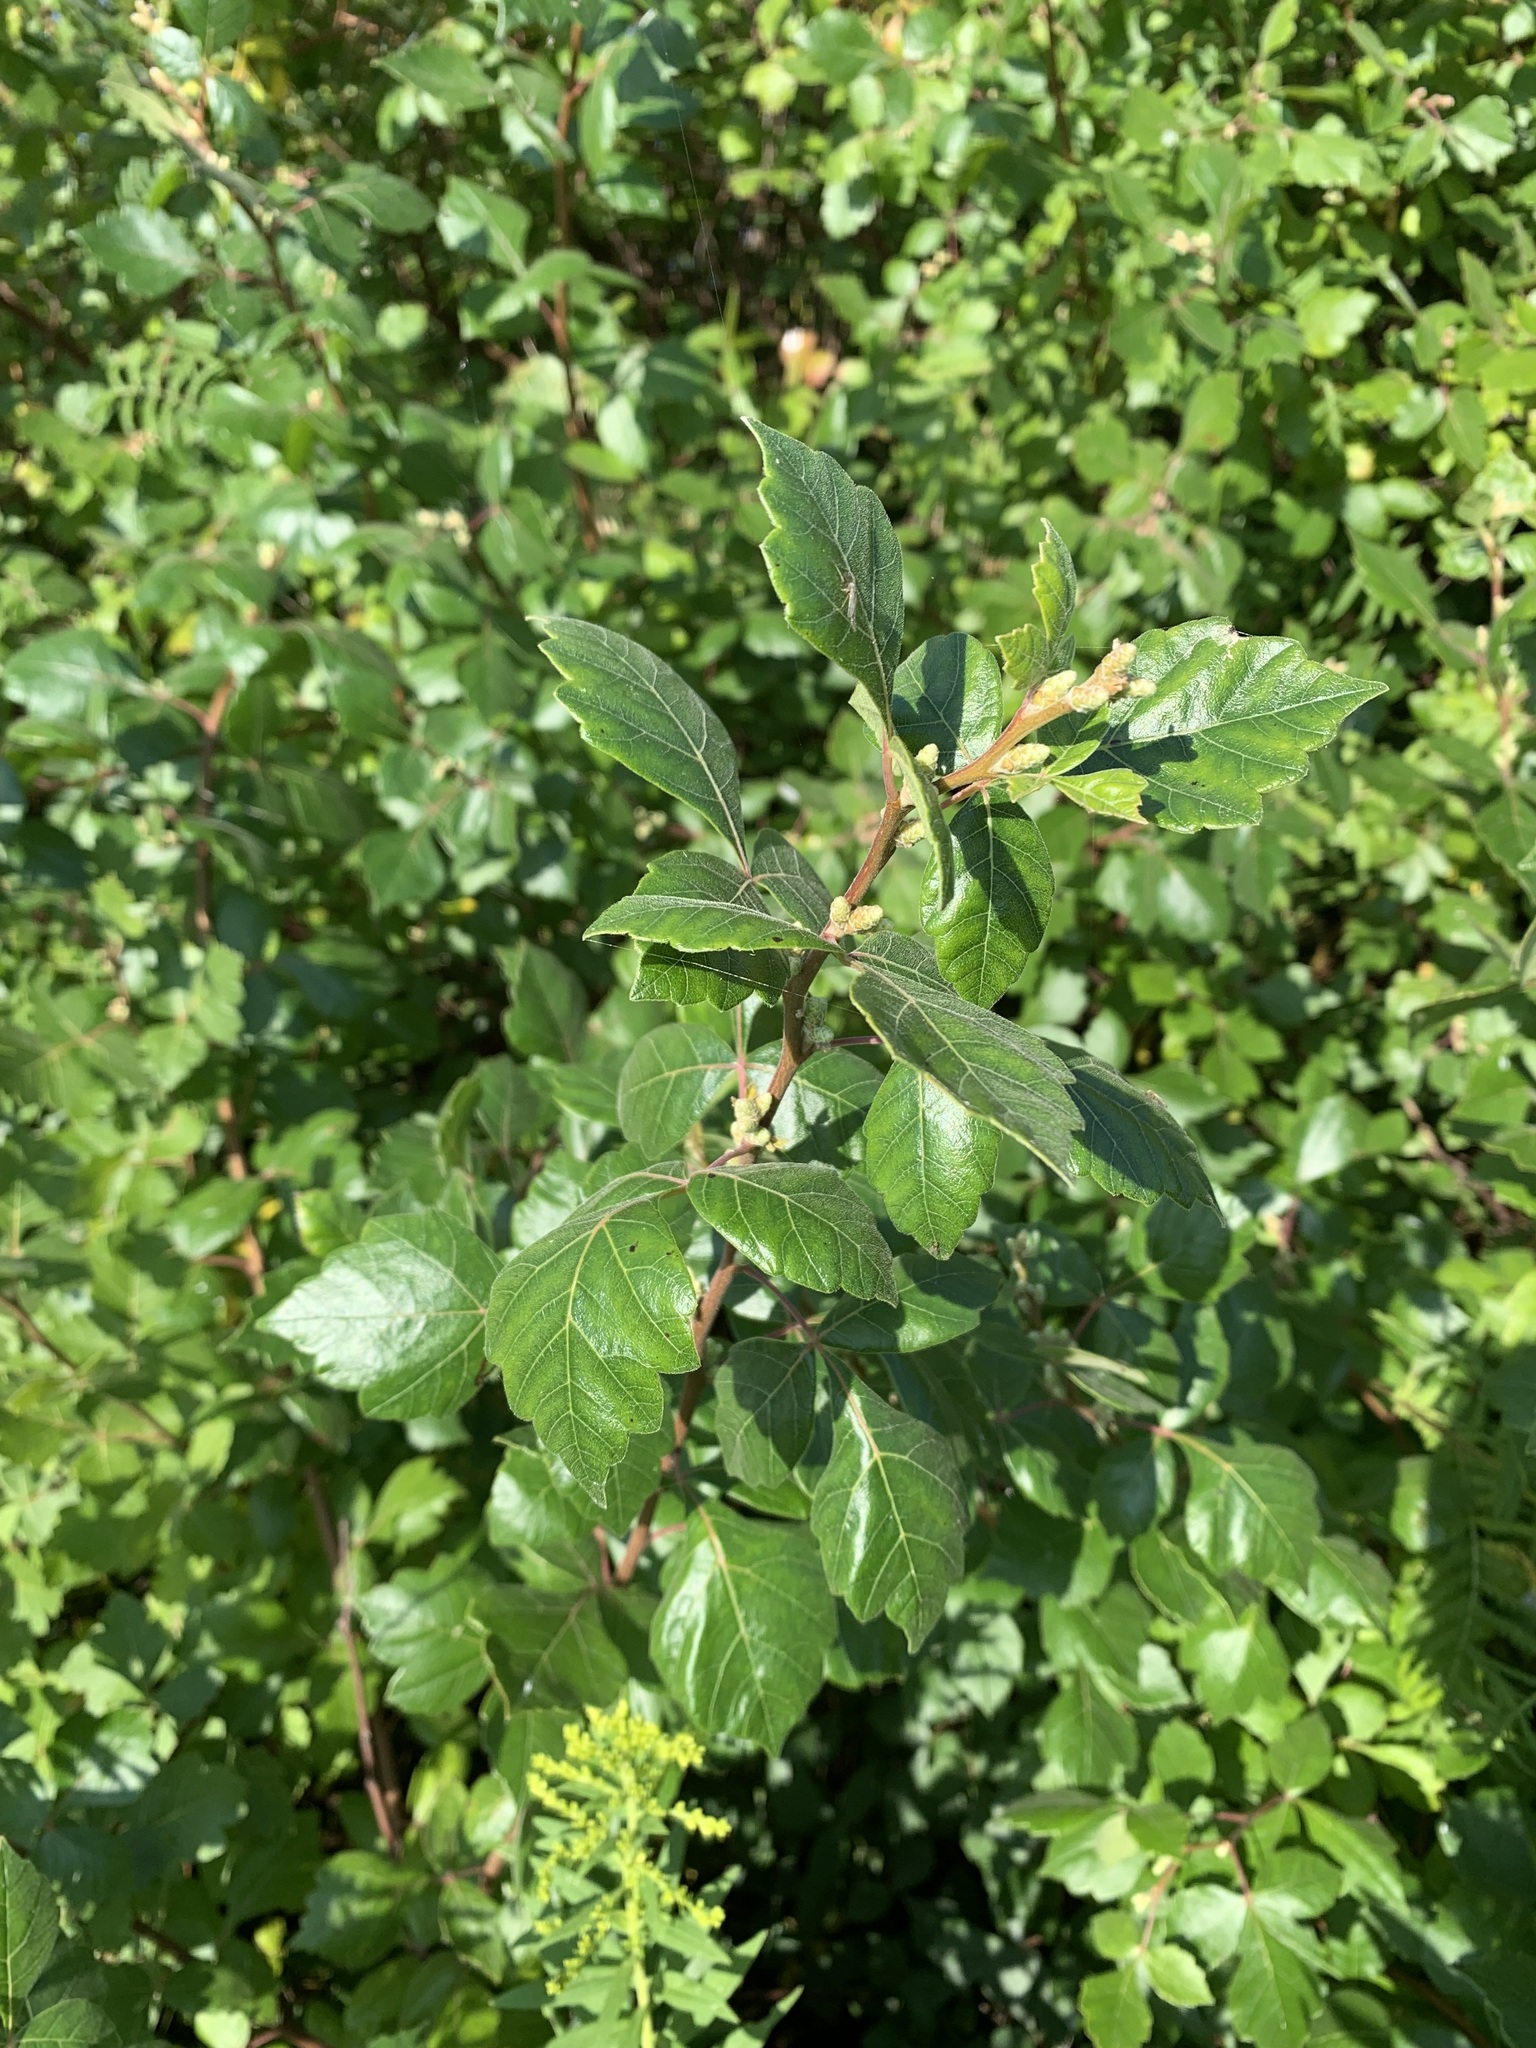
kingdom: Plantae
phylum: Tracheophyta
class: Magnoliopsida
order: Sapindales
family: Anacardiaceae
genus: Rhus
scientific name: Rhus aromatica
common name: Aromatic sumac
